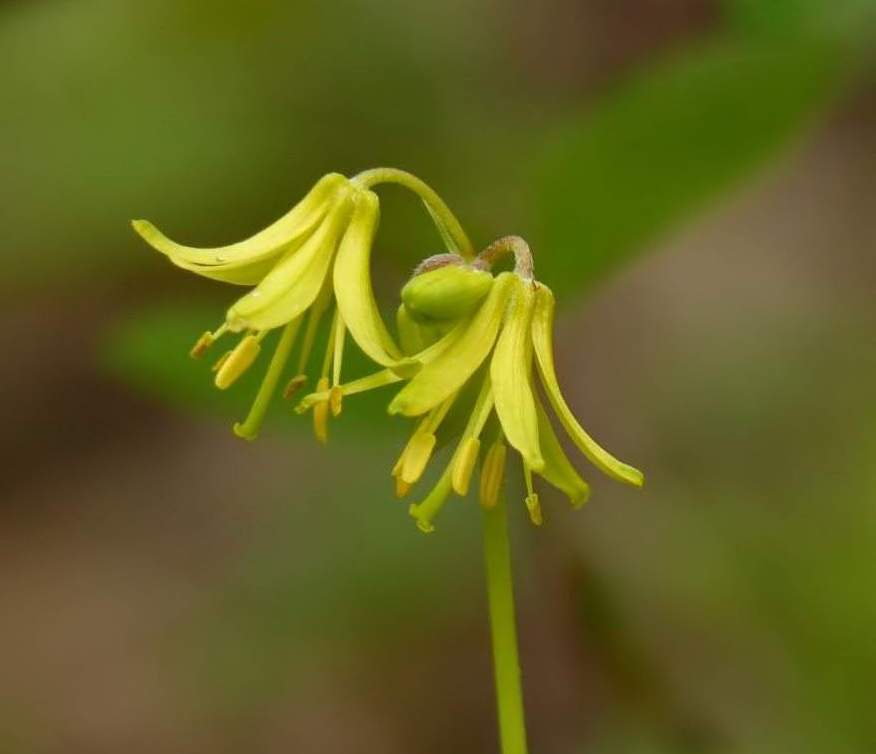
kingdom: Plantae
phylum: Tracheophyta
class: Liliopsida
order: Liliales
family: Liliaceae
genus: Clintonia
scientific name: Clintonia borealis
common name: Yellow clintonia
